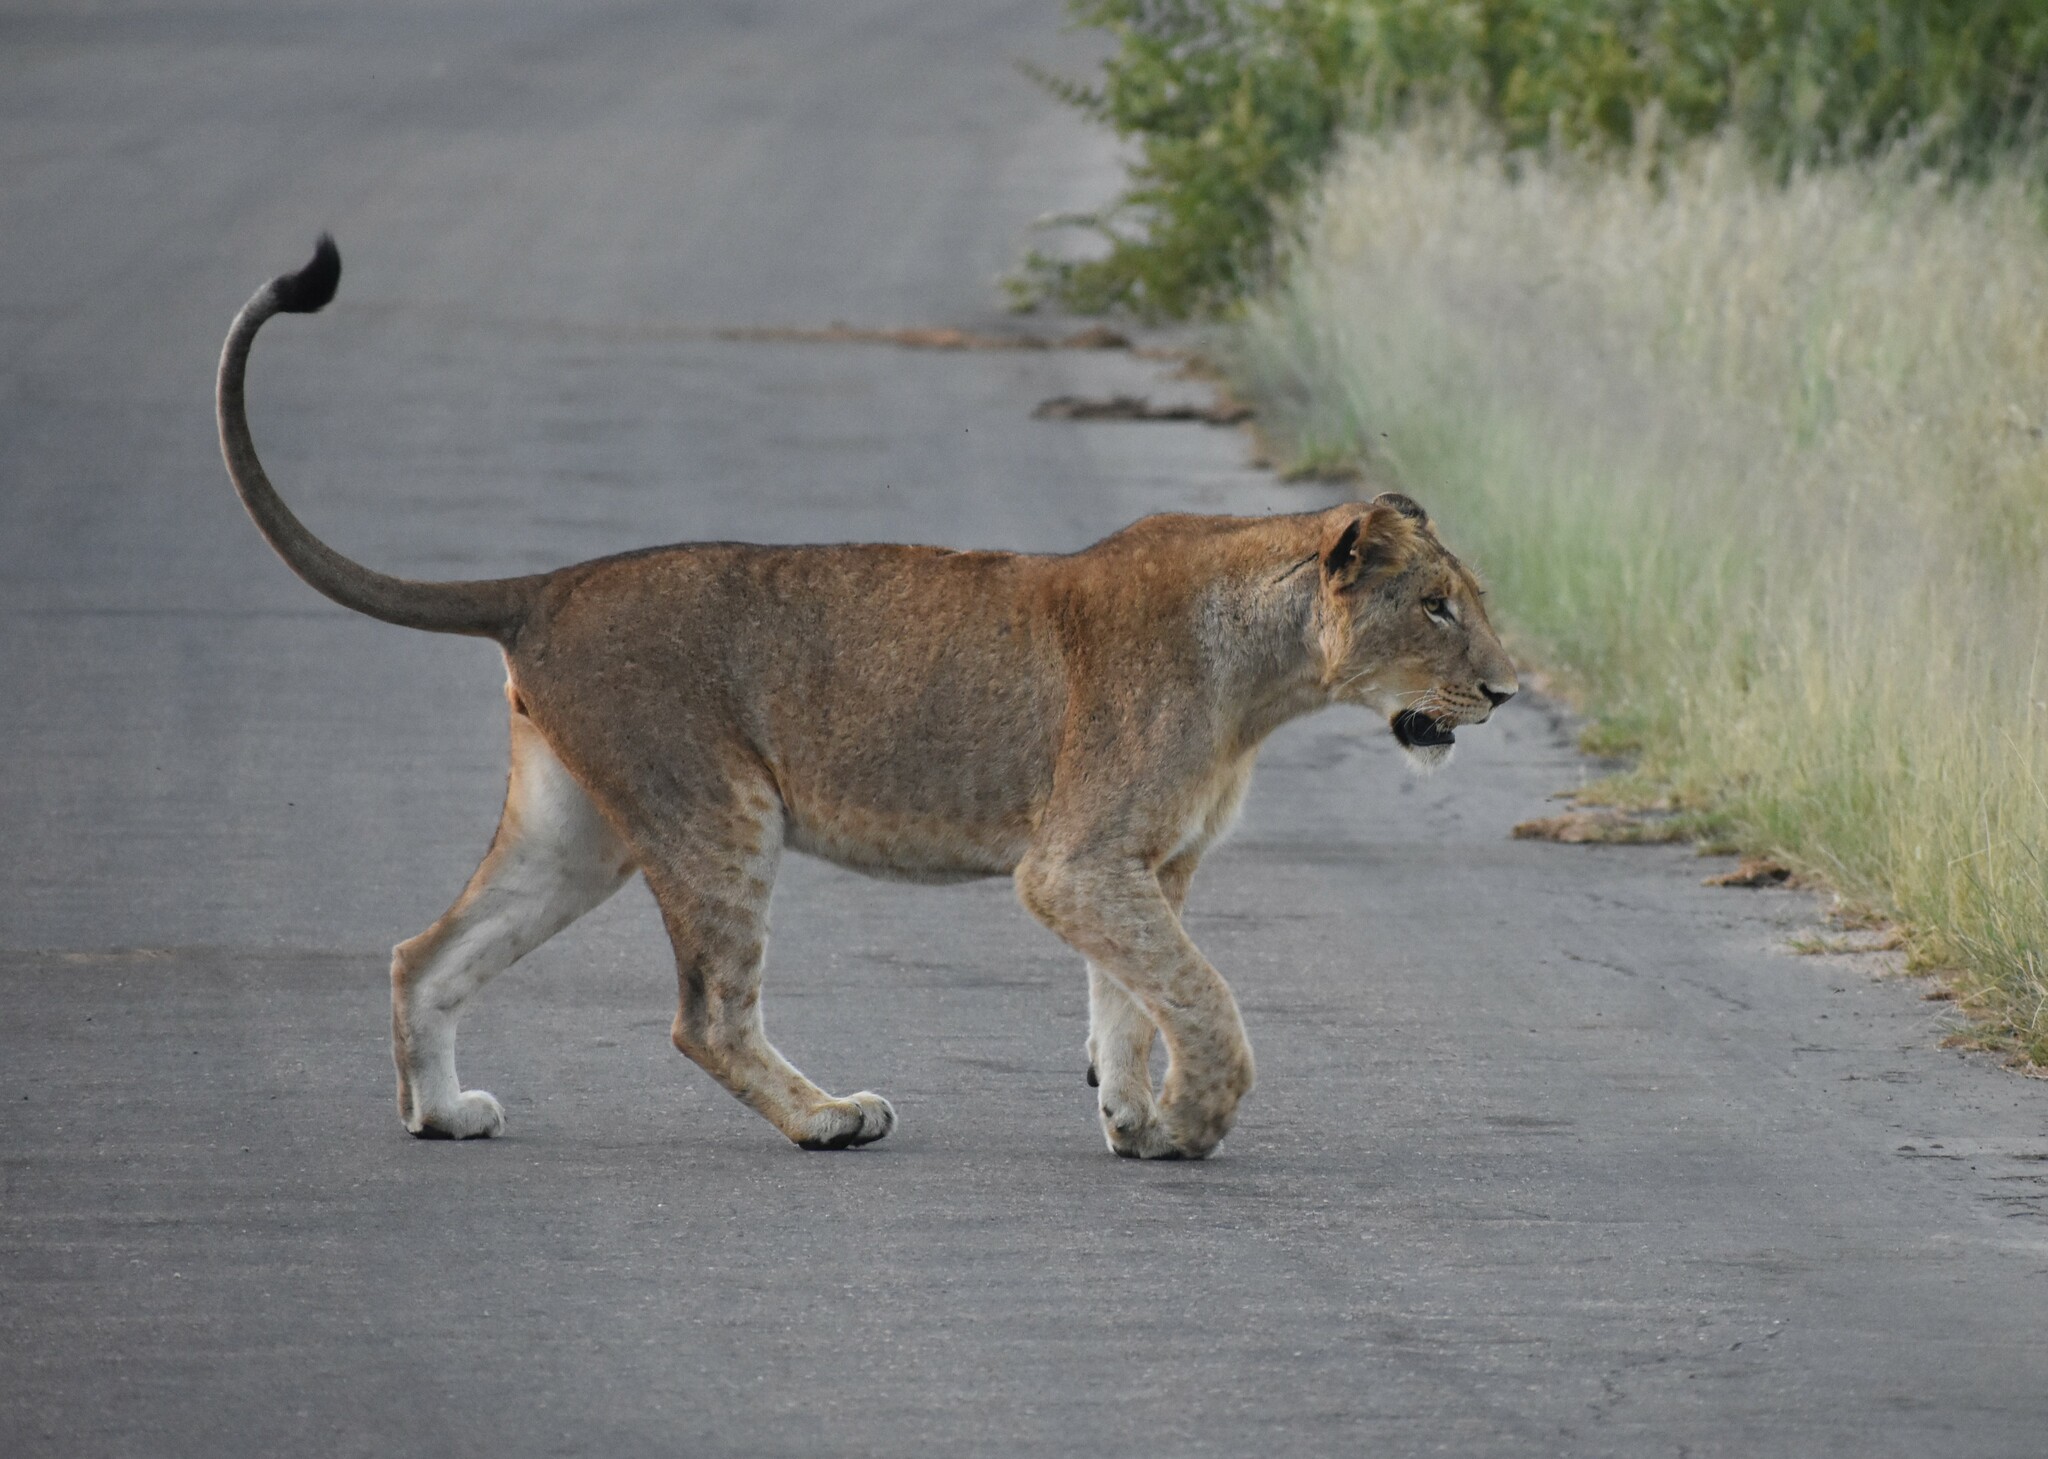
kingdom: Animalia
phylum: Chordata
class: Mammalia
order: Carnivora
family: Felidae
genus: Panthera
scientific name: Panthera leo
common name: Lion
